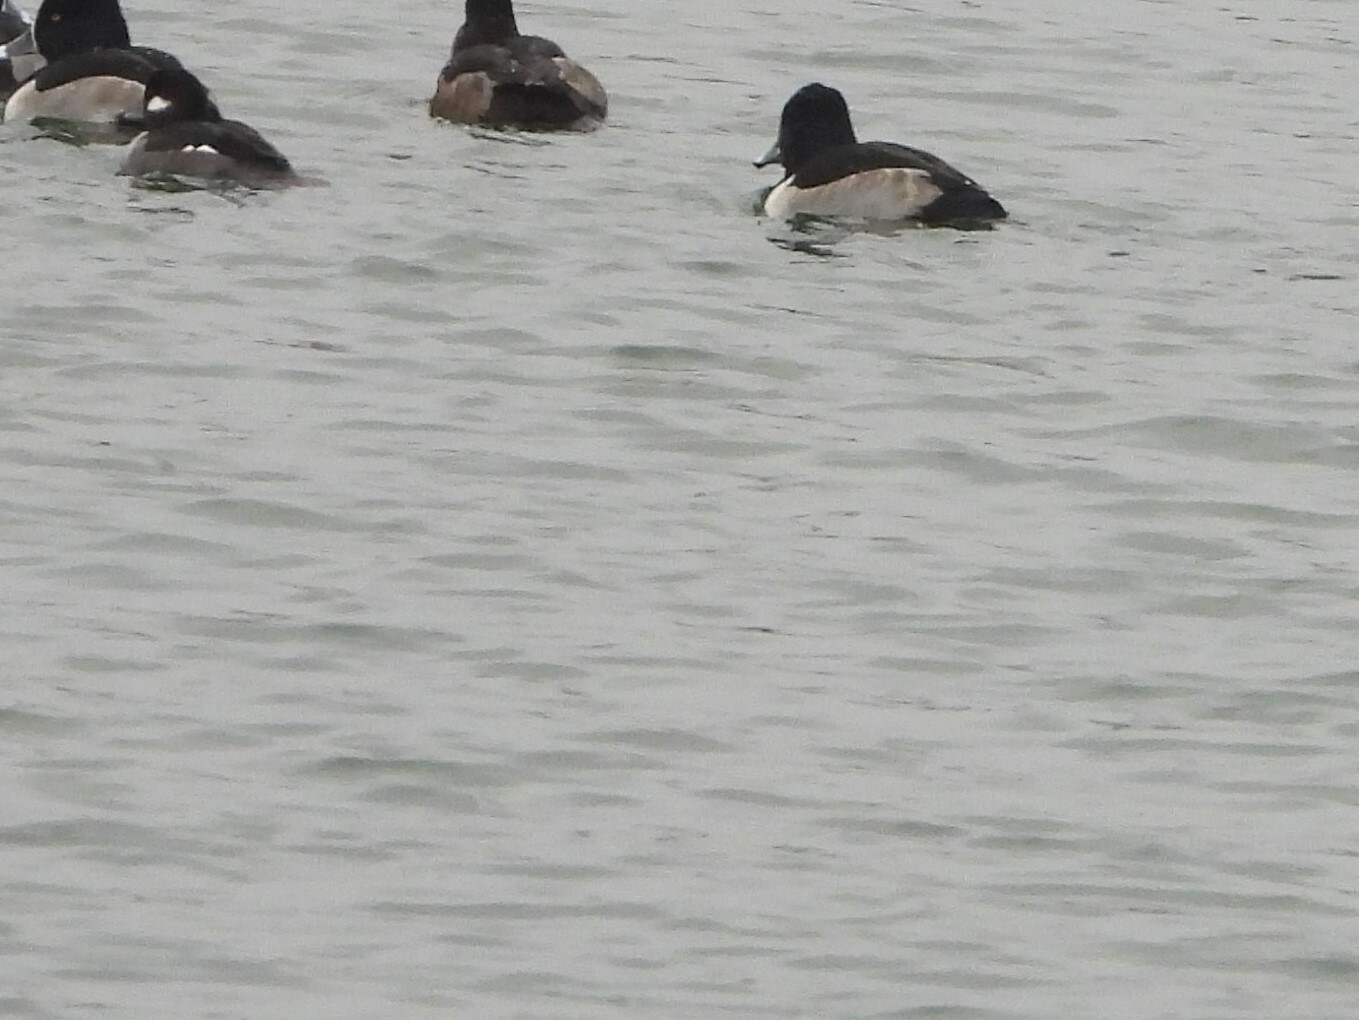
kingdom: Animalia
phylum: Chordata
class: Aves
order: Anseriformes
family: Anatidae
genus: Aythya
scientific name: Aythya collaris
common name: Ring-necked duck
